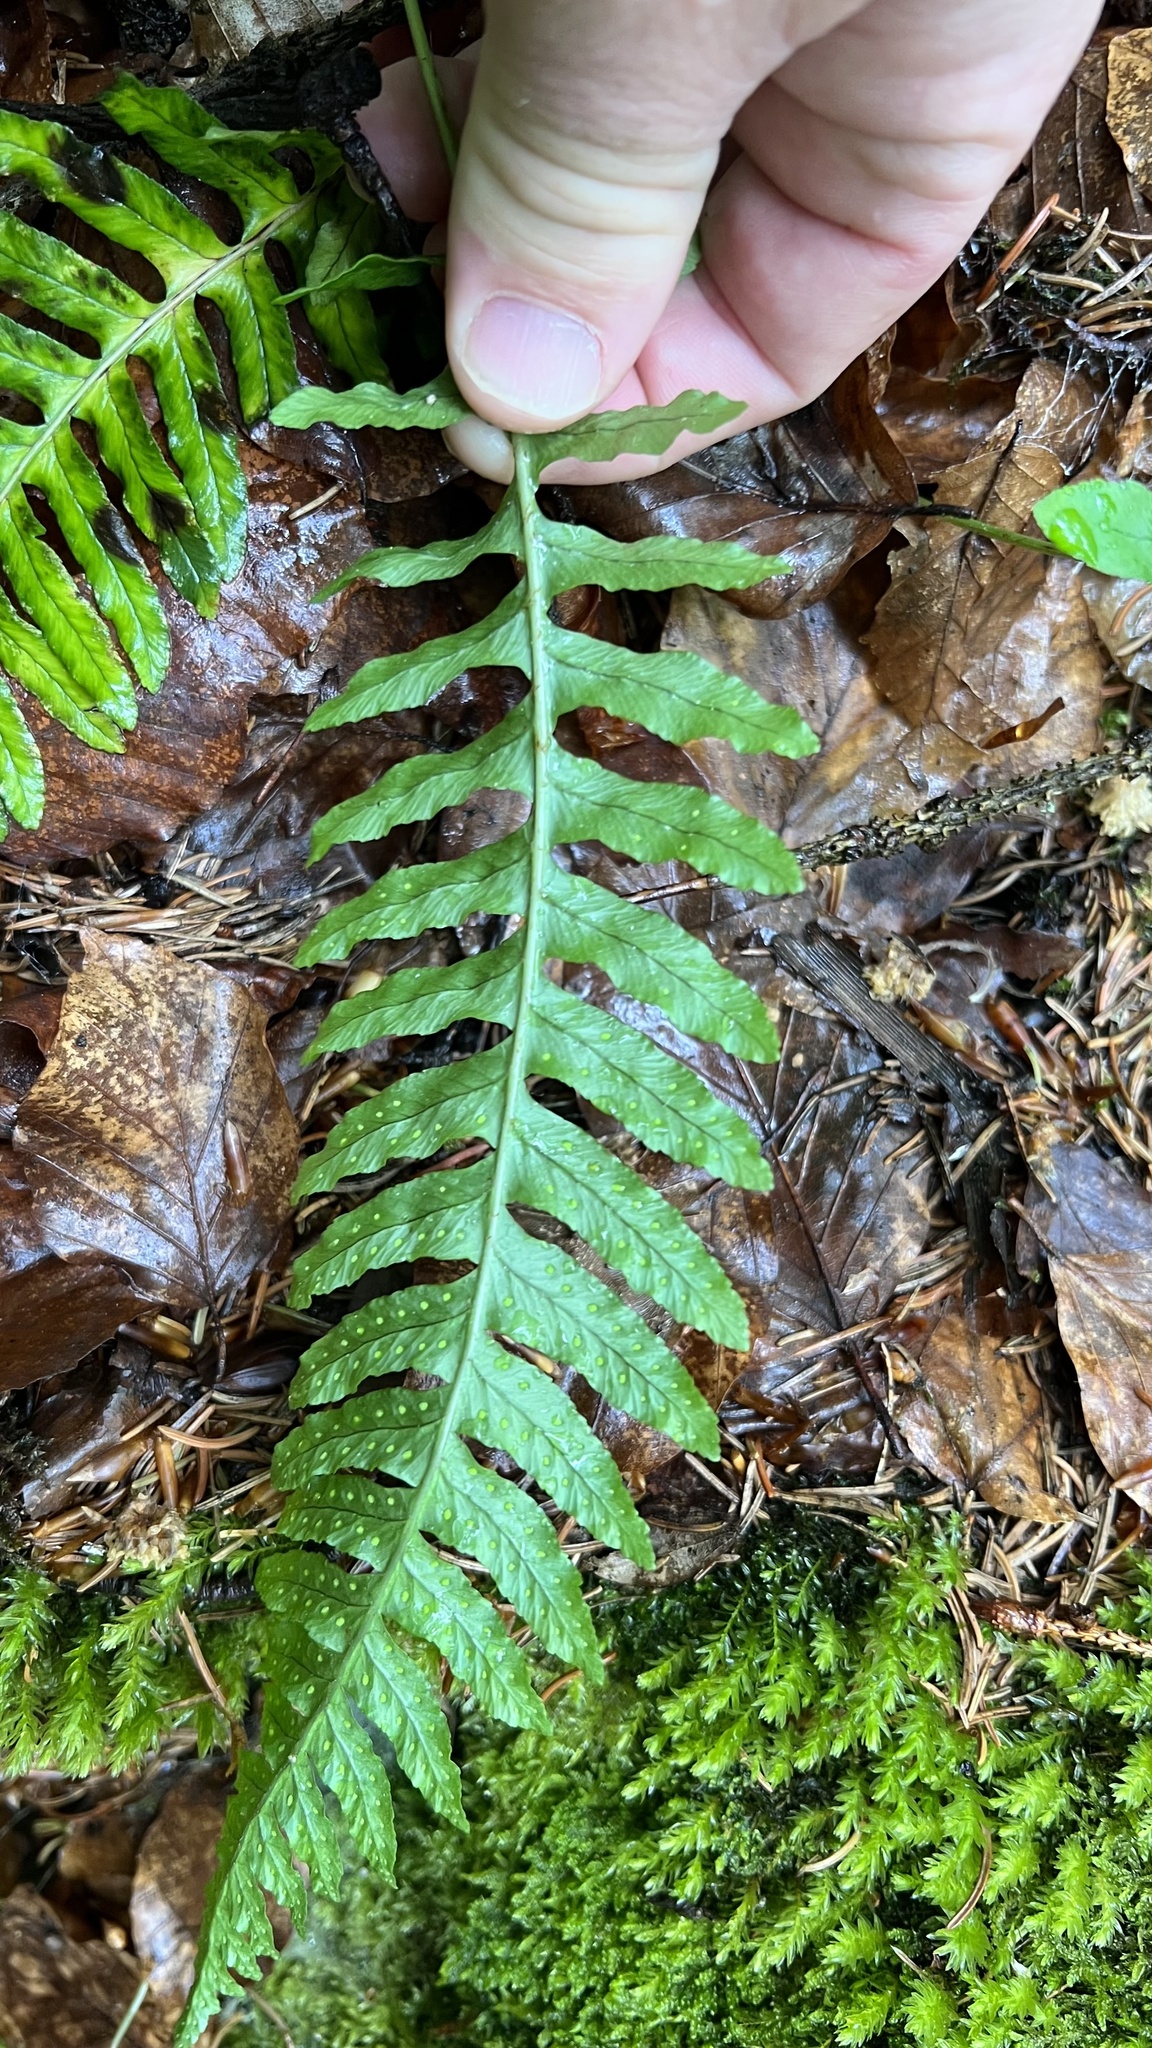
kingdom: Plantae
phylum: Tracheophyta
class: Polypodiopsida
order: Polypodiales
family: Polypodiaceae
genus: Polypodium
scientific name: Polypodium vulgare
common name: Common polypody
